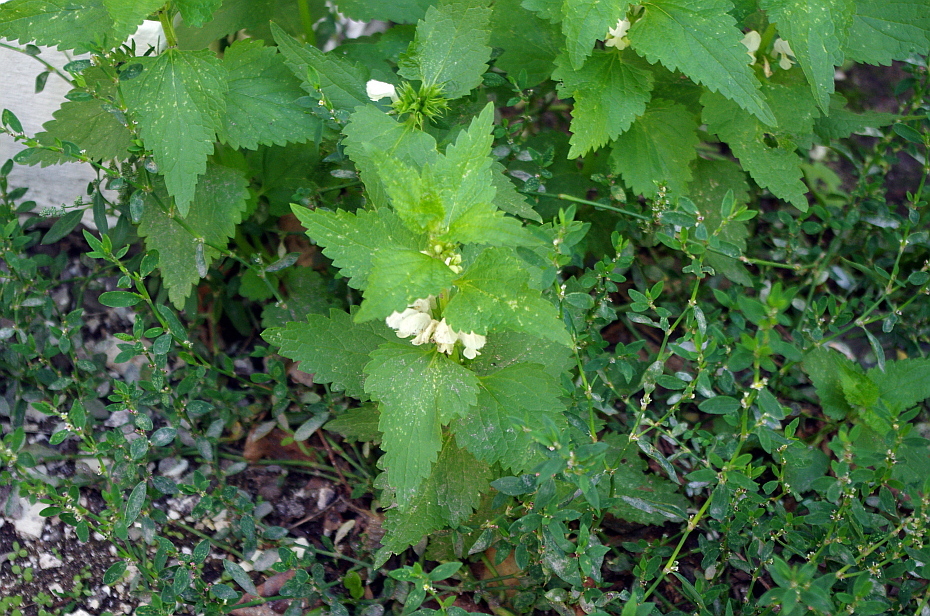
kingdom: Plantae
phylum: Tracheophyta
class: Magnoliopsida
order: Lamiales
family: Lamiaceae
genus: Lamium
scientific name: Lamium album
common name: White dead-nettle
